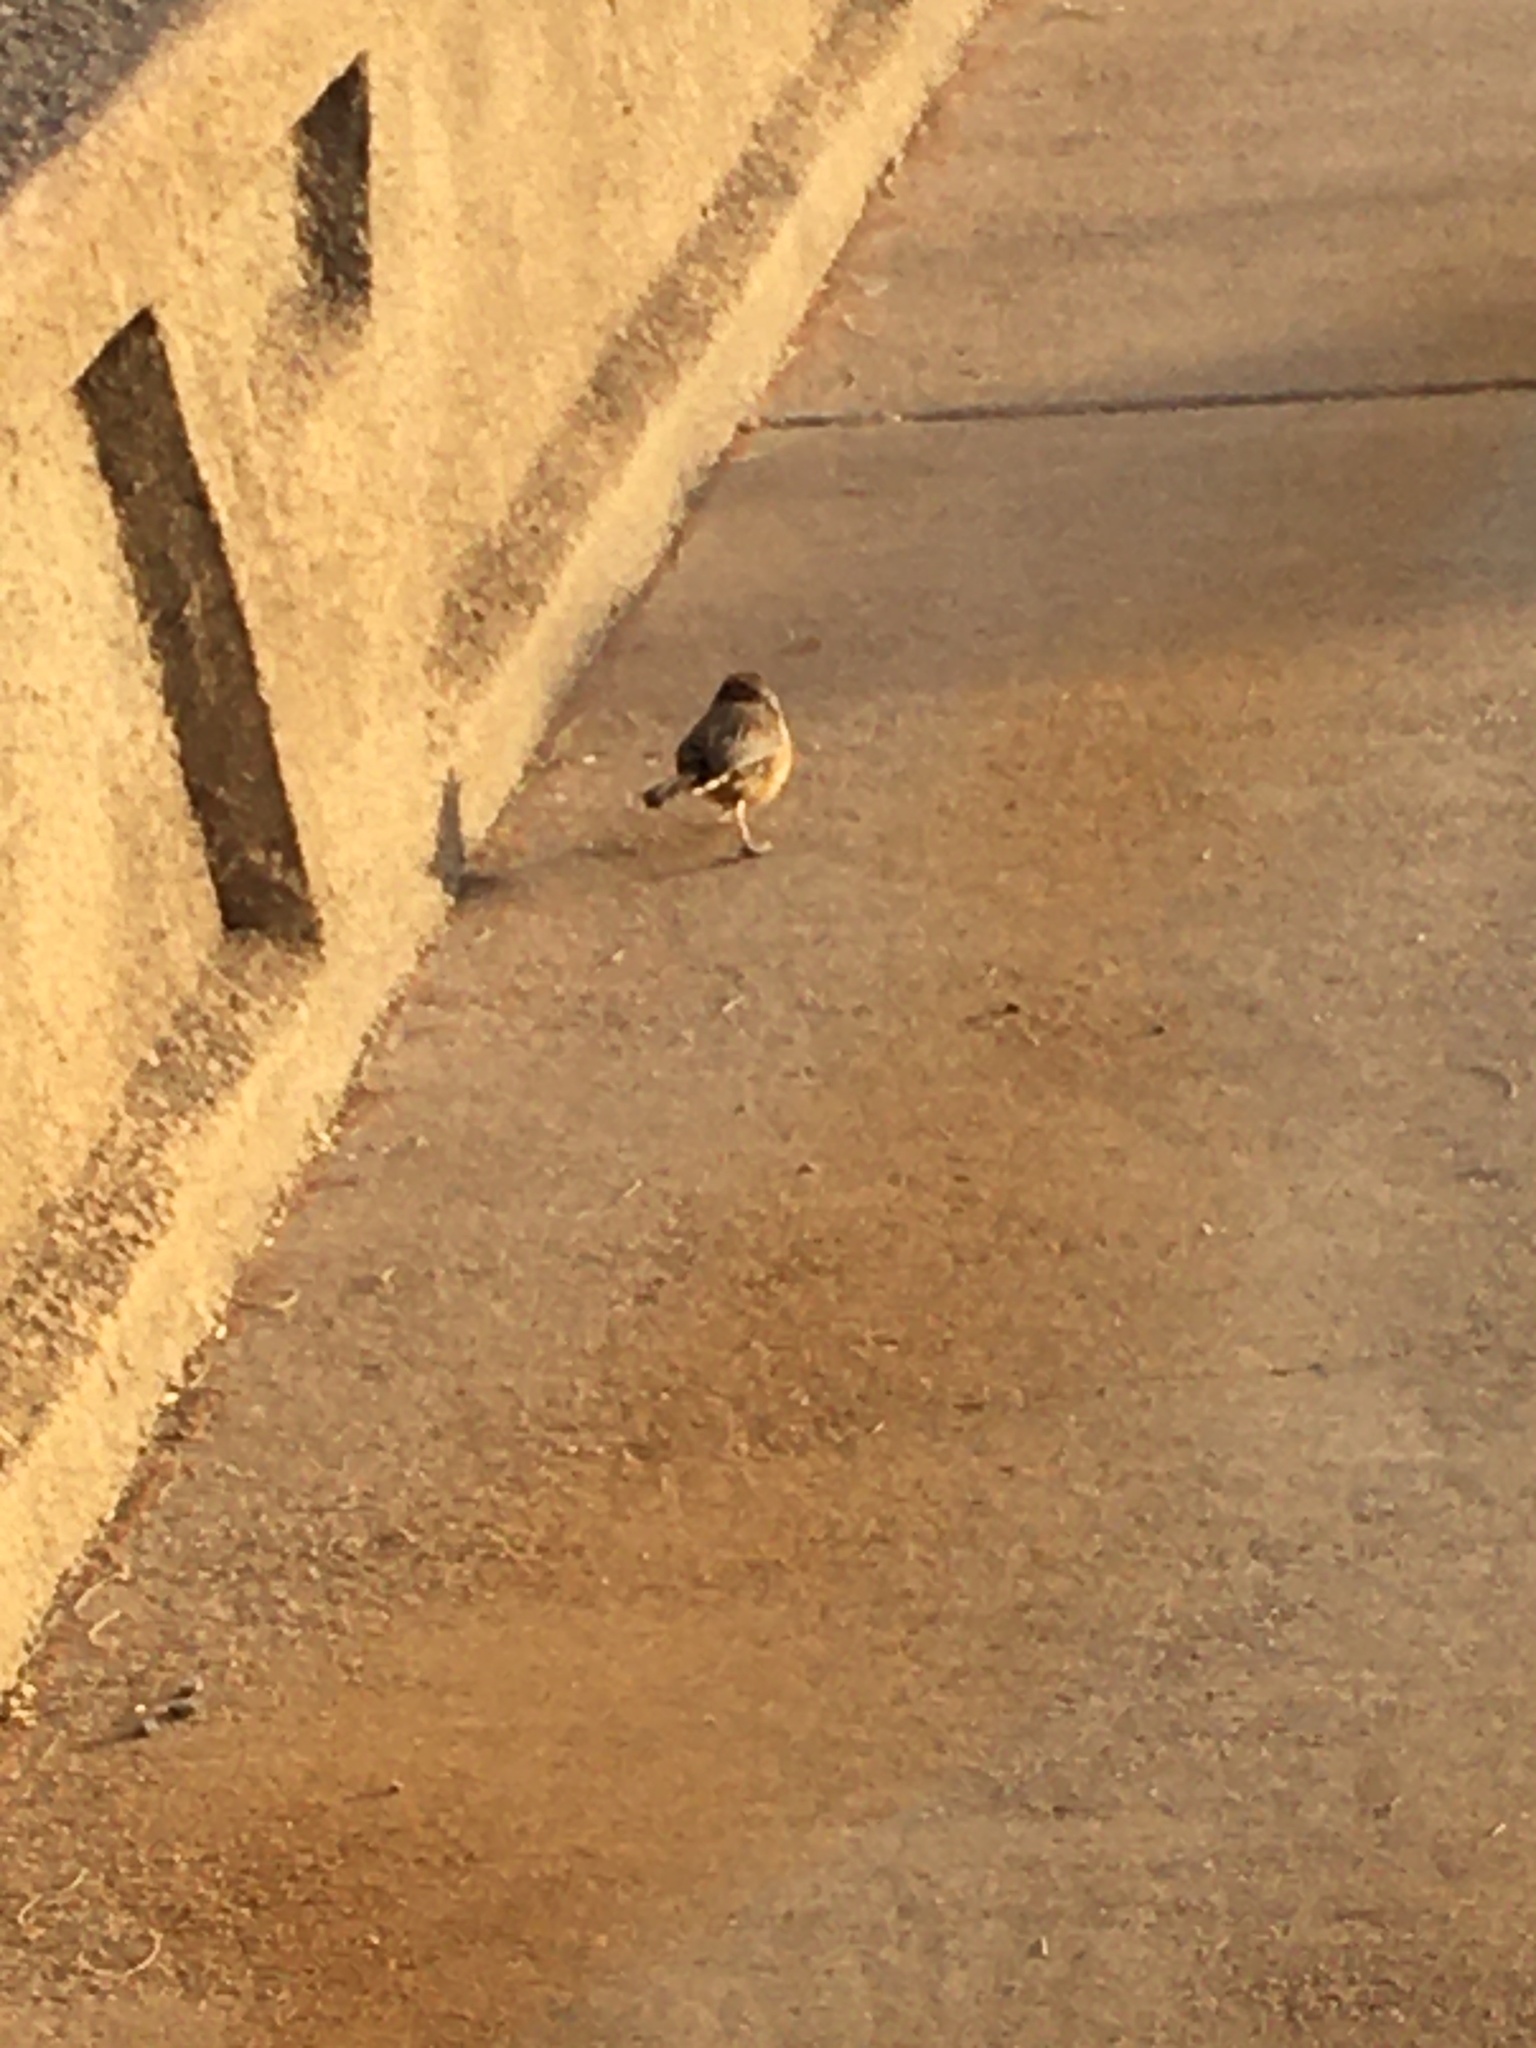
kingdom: Animalia
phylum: Chordata
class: Aves
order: Passeriformes
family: Troglodytidae
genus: Campylorhynchus
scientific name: Campylorhynchus brunneicapillus
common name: Cactus wren
